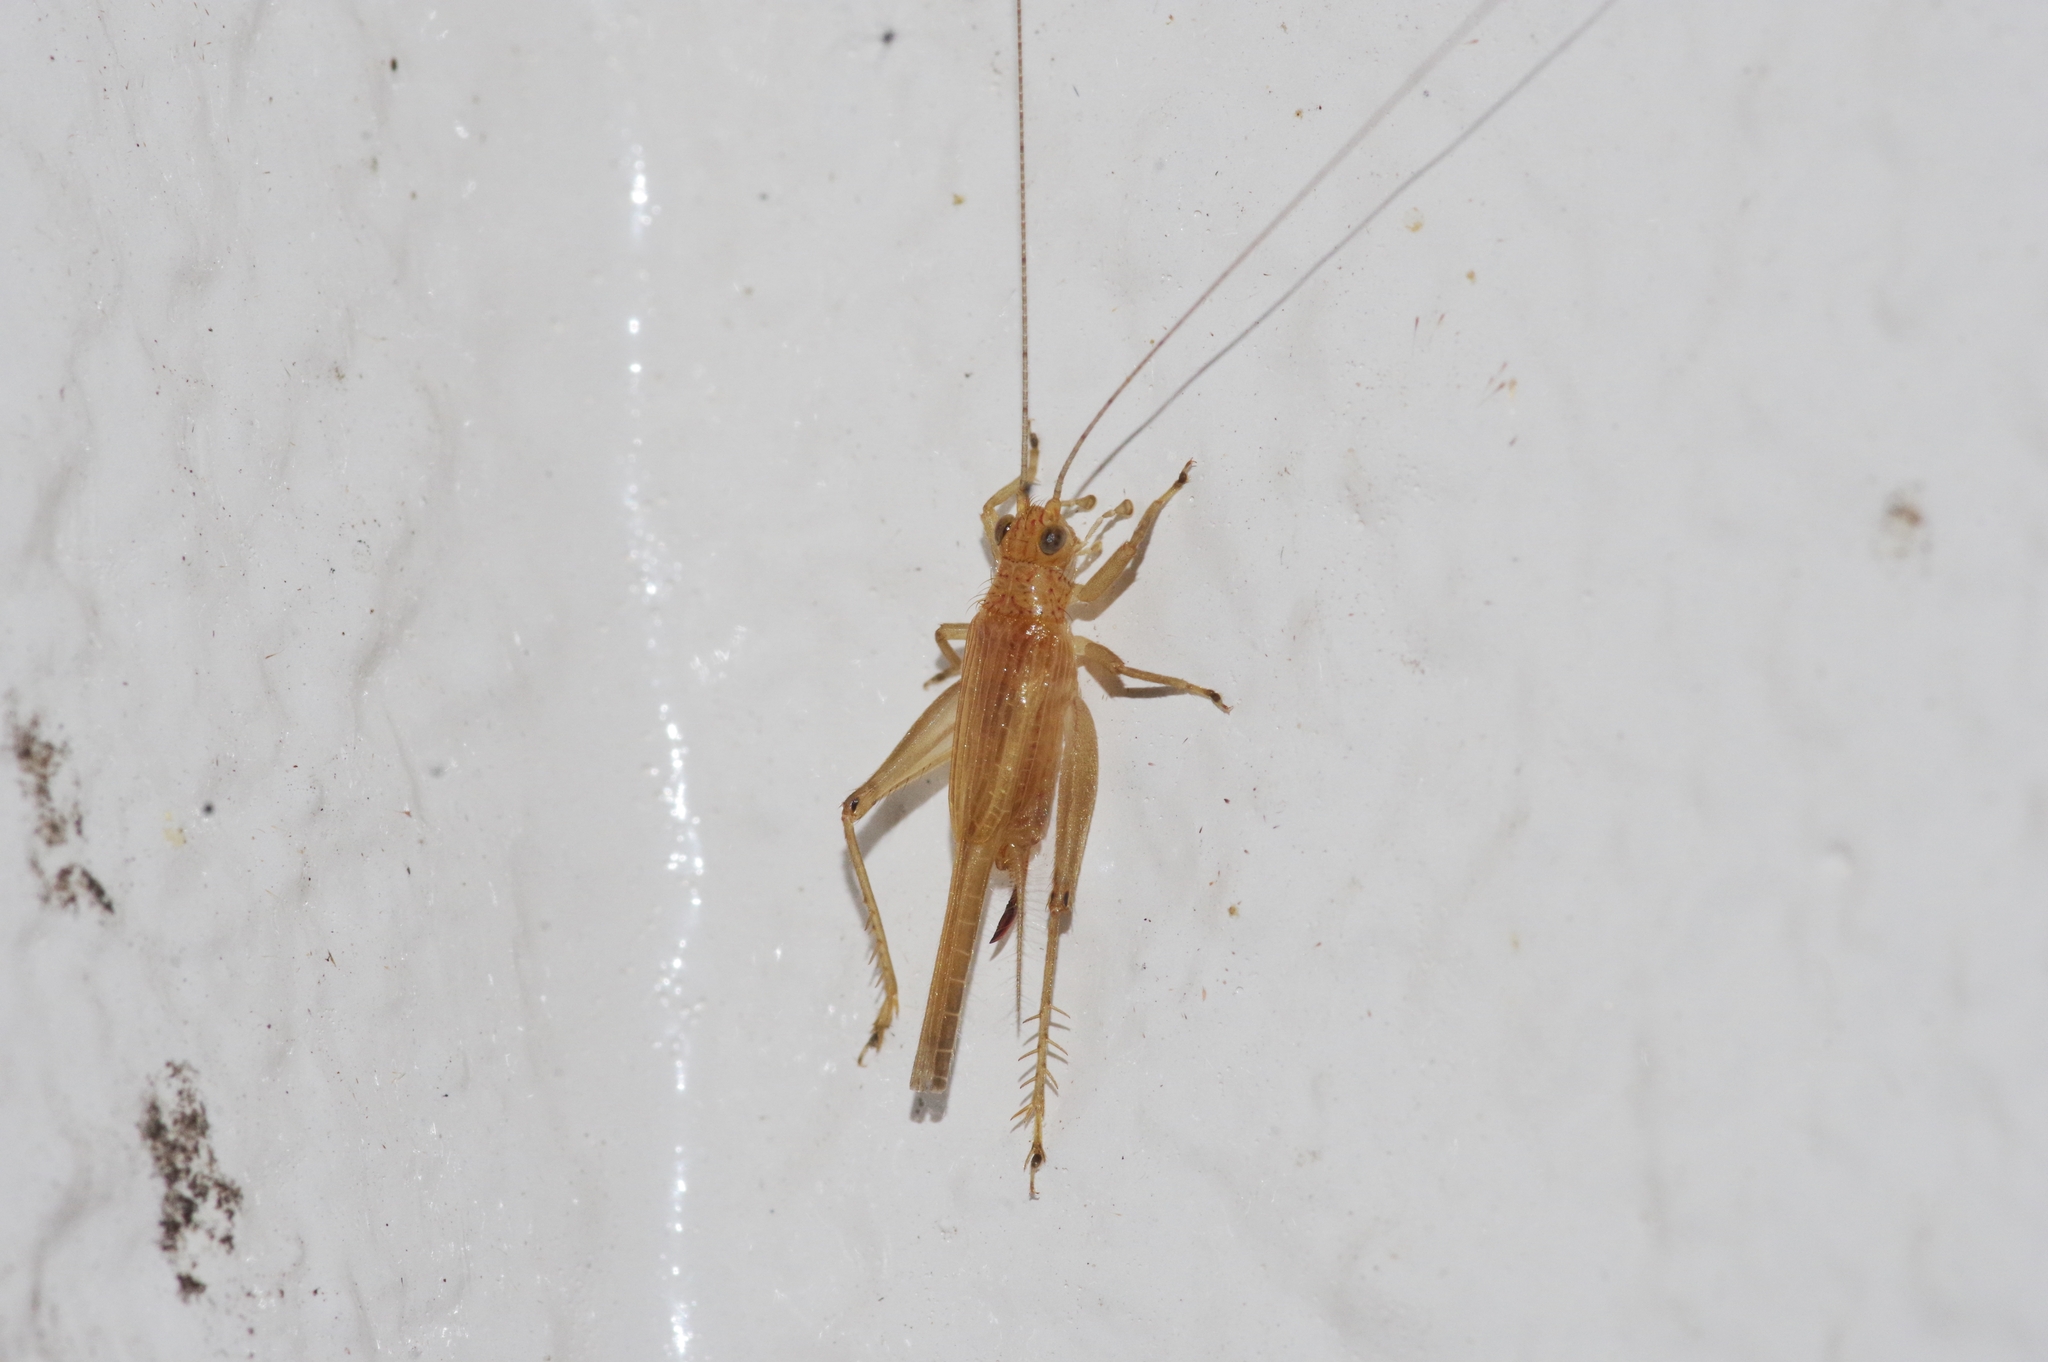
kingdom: Animalia
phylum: Arthropoda
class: Insecta
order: Orthoptera
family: Trigonidiidae
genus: Anaxipha
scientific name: Anaxipha henryi
